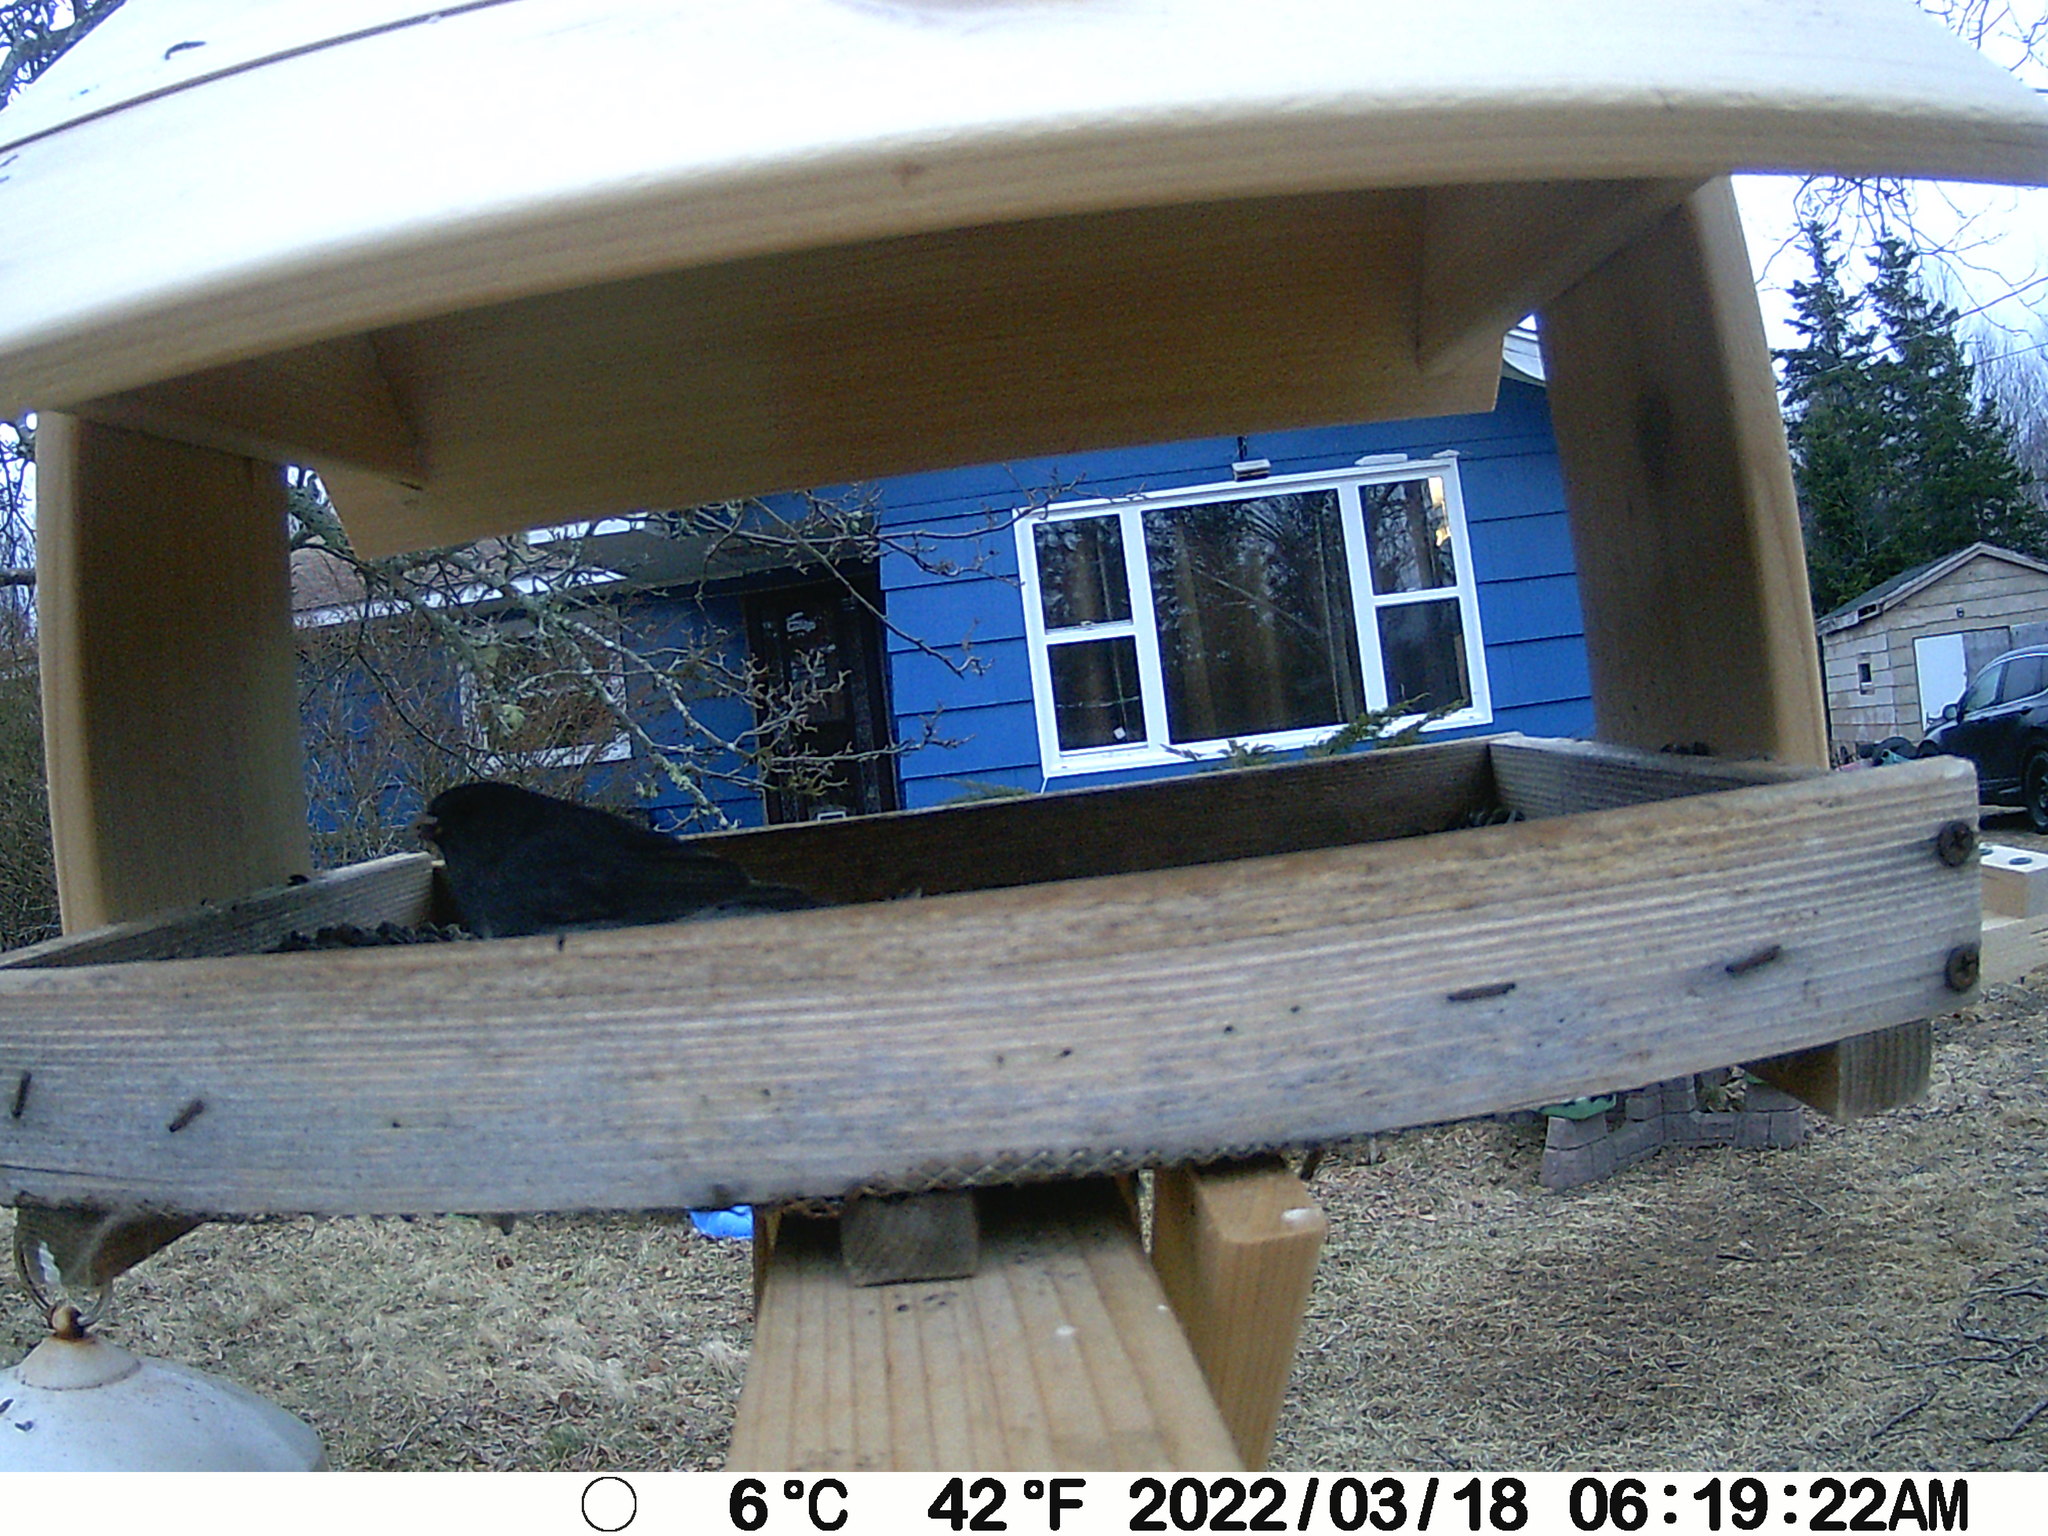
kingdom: Animalia
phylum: Chordata
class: Aves
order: Passeriformes
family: Passerellidae
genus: Junco
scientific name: Junco hyemalis
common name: Dark-eyed junco
